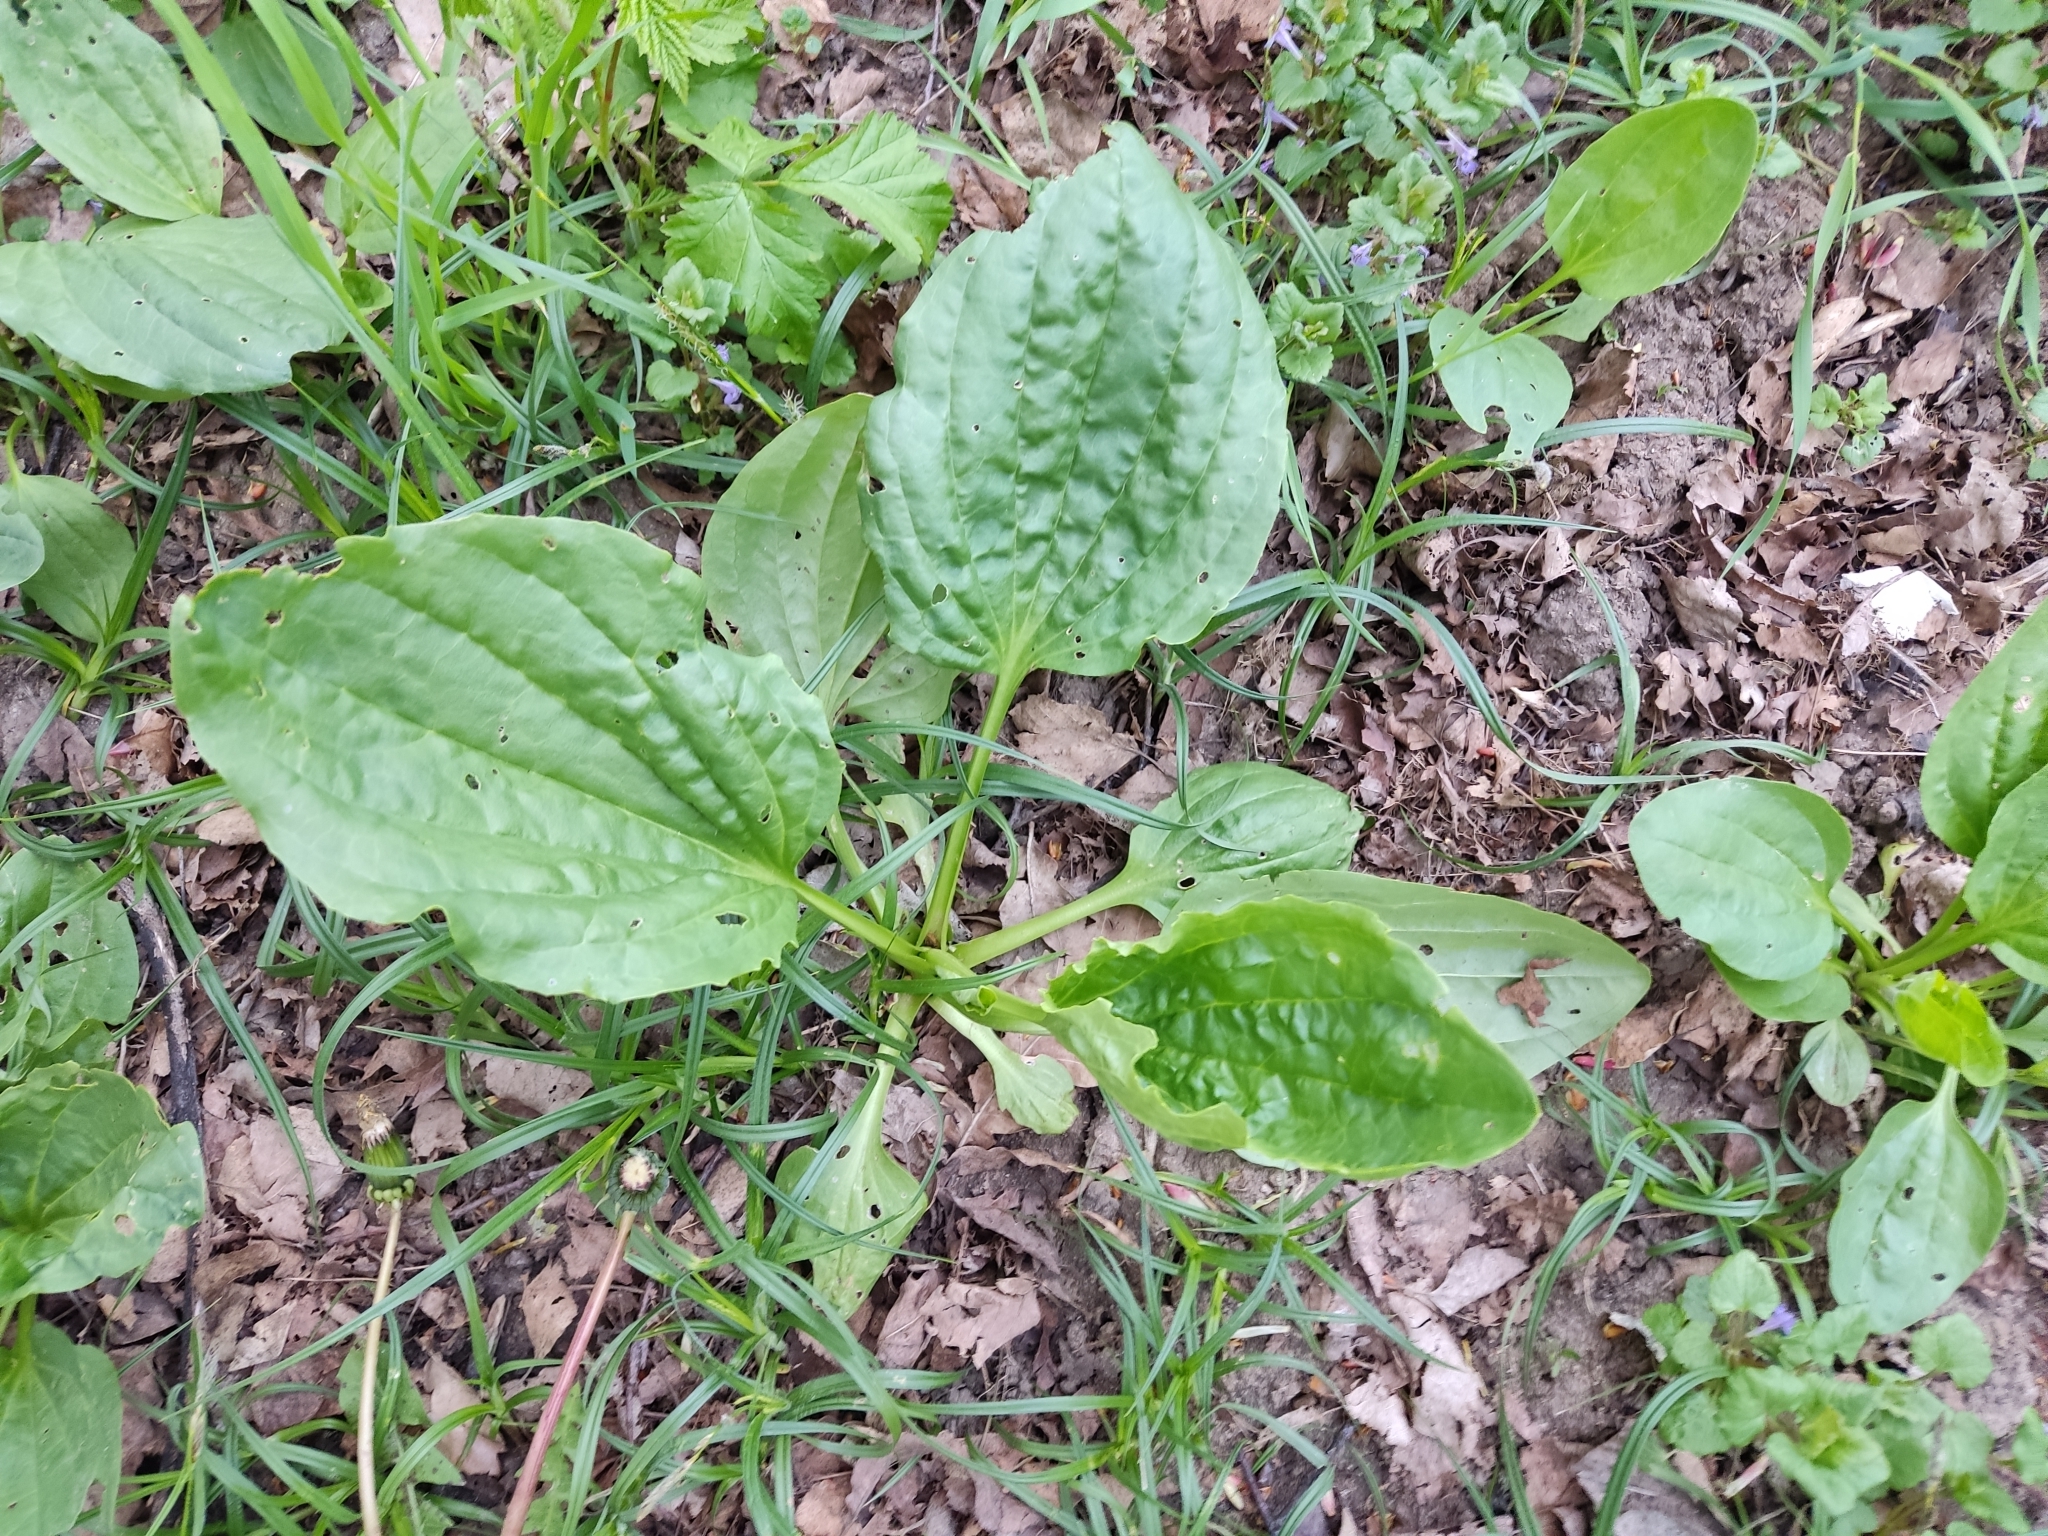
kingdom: Plantae
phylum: Tracheophyta
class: Magnoliopsida
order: Lamiales
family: Plantaginaceae
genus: Plantago
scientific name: Plantago major
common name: Common plantain
